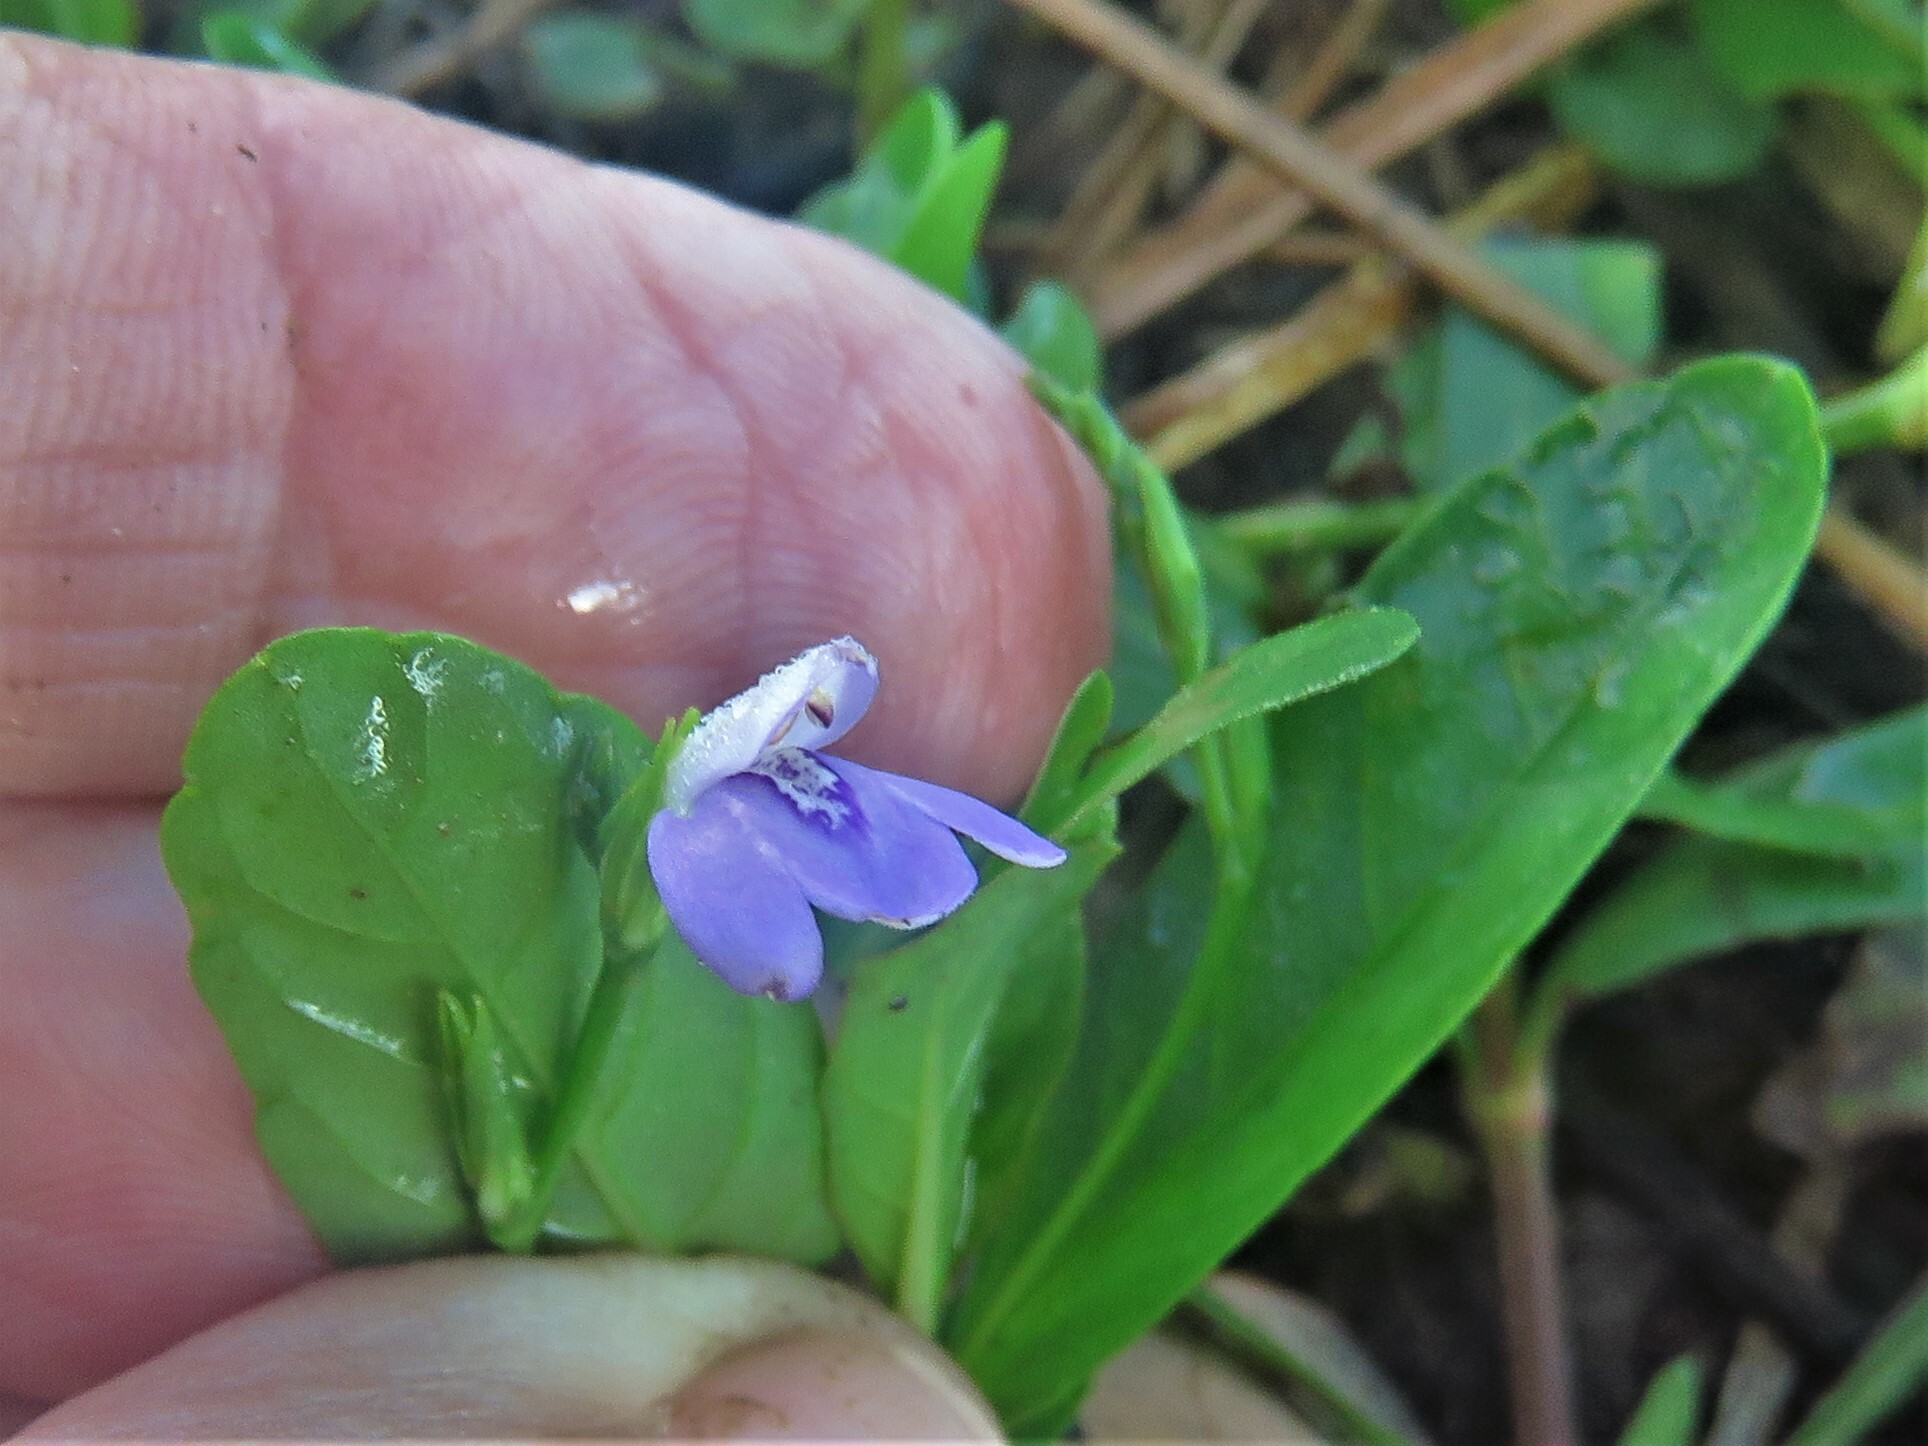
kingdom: Plantae
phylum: Tracheophyta
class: Magnoliopsida
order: Lamiales
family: Acanthaceae
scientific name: Acanthaceae
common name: Acanthaceae
